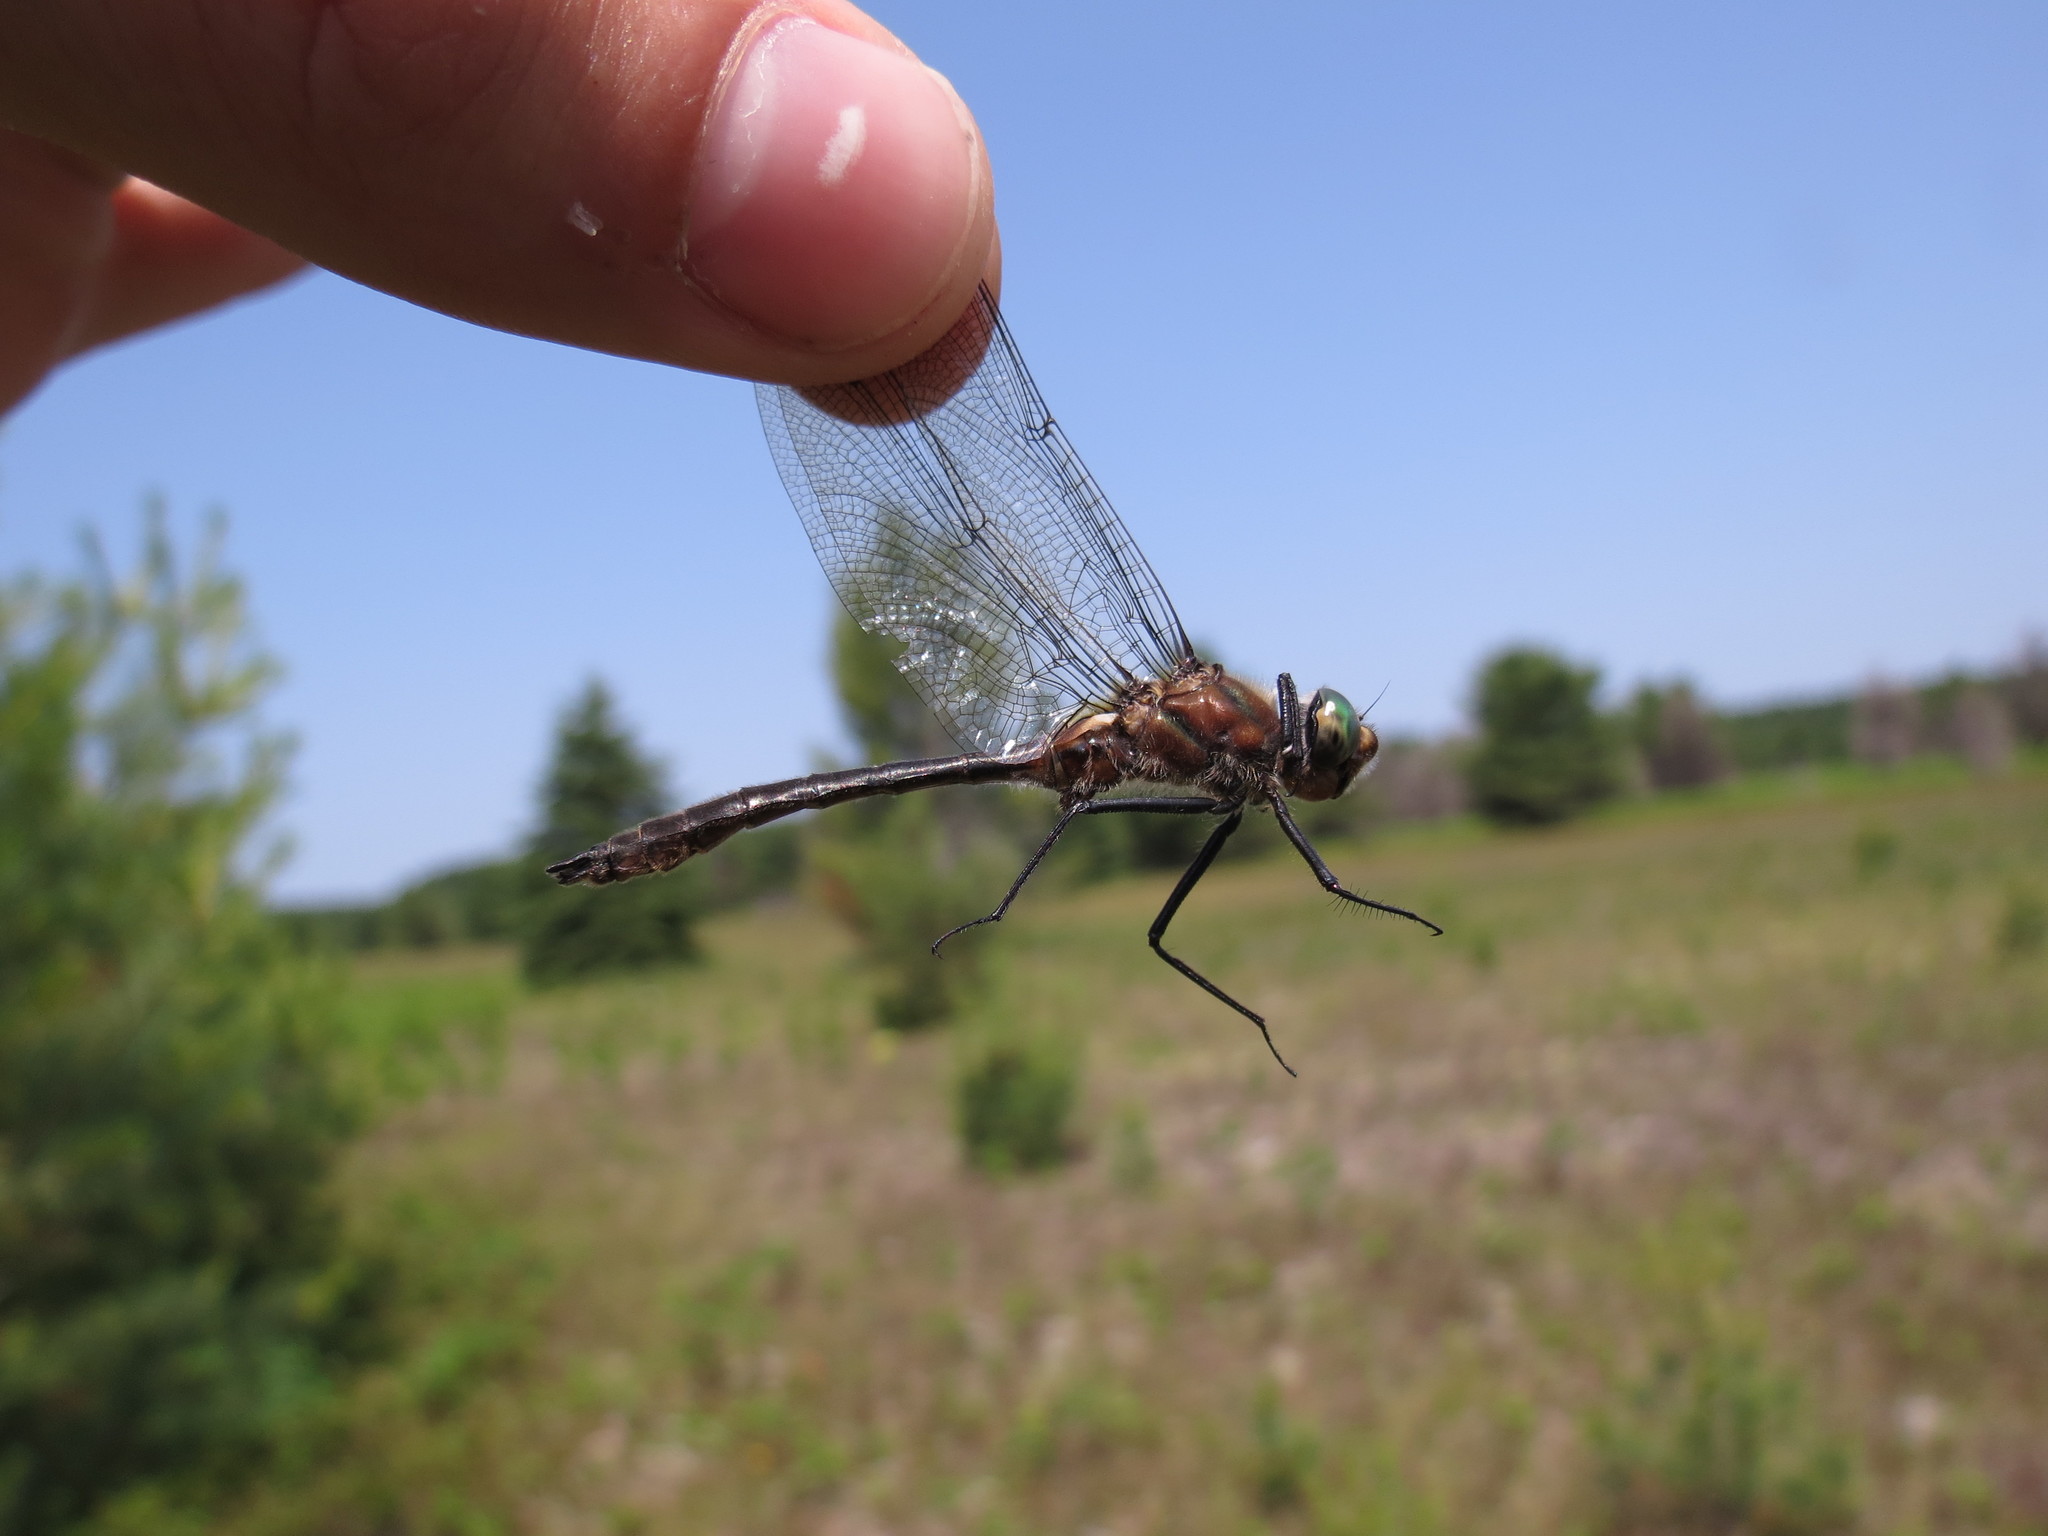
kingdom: Animalia
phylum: Arthropoda
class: Insecta
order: Odonata
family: Corduliidae
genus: Cordulia
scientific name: Cordulia shurtleffii
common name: American emerald
